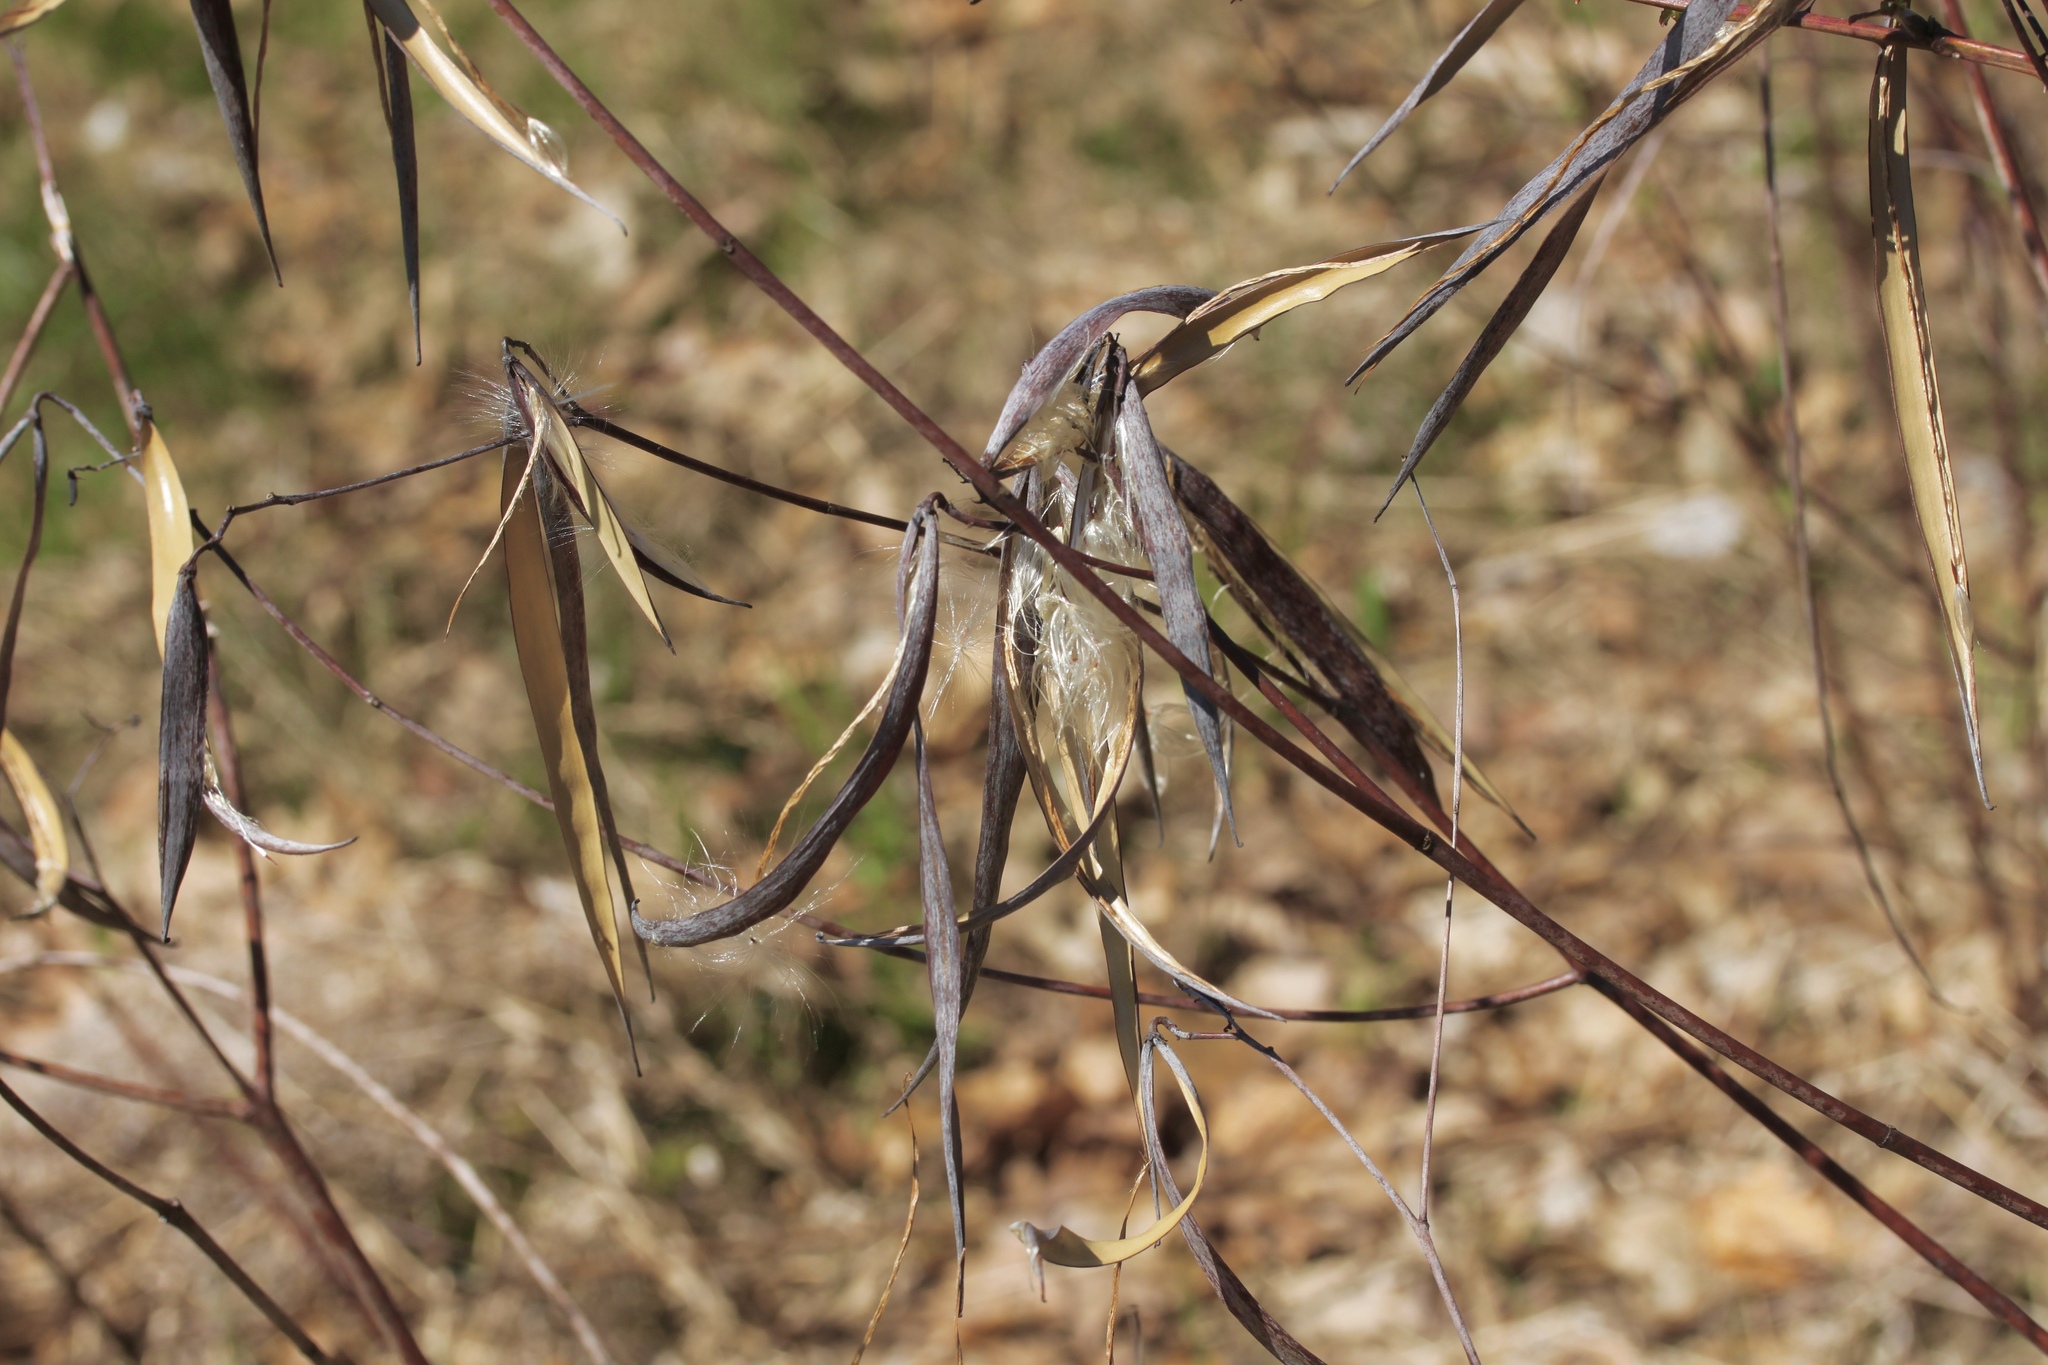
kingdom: Plantae
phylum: Tracheophyta
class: Magnoliopsida
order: Gentianales
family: Apocynaceae
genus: Apocynum
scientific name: Apocynum cannabinum
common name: Hemp dogbane
